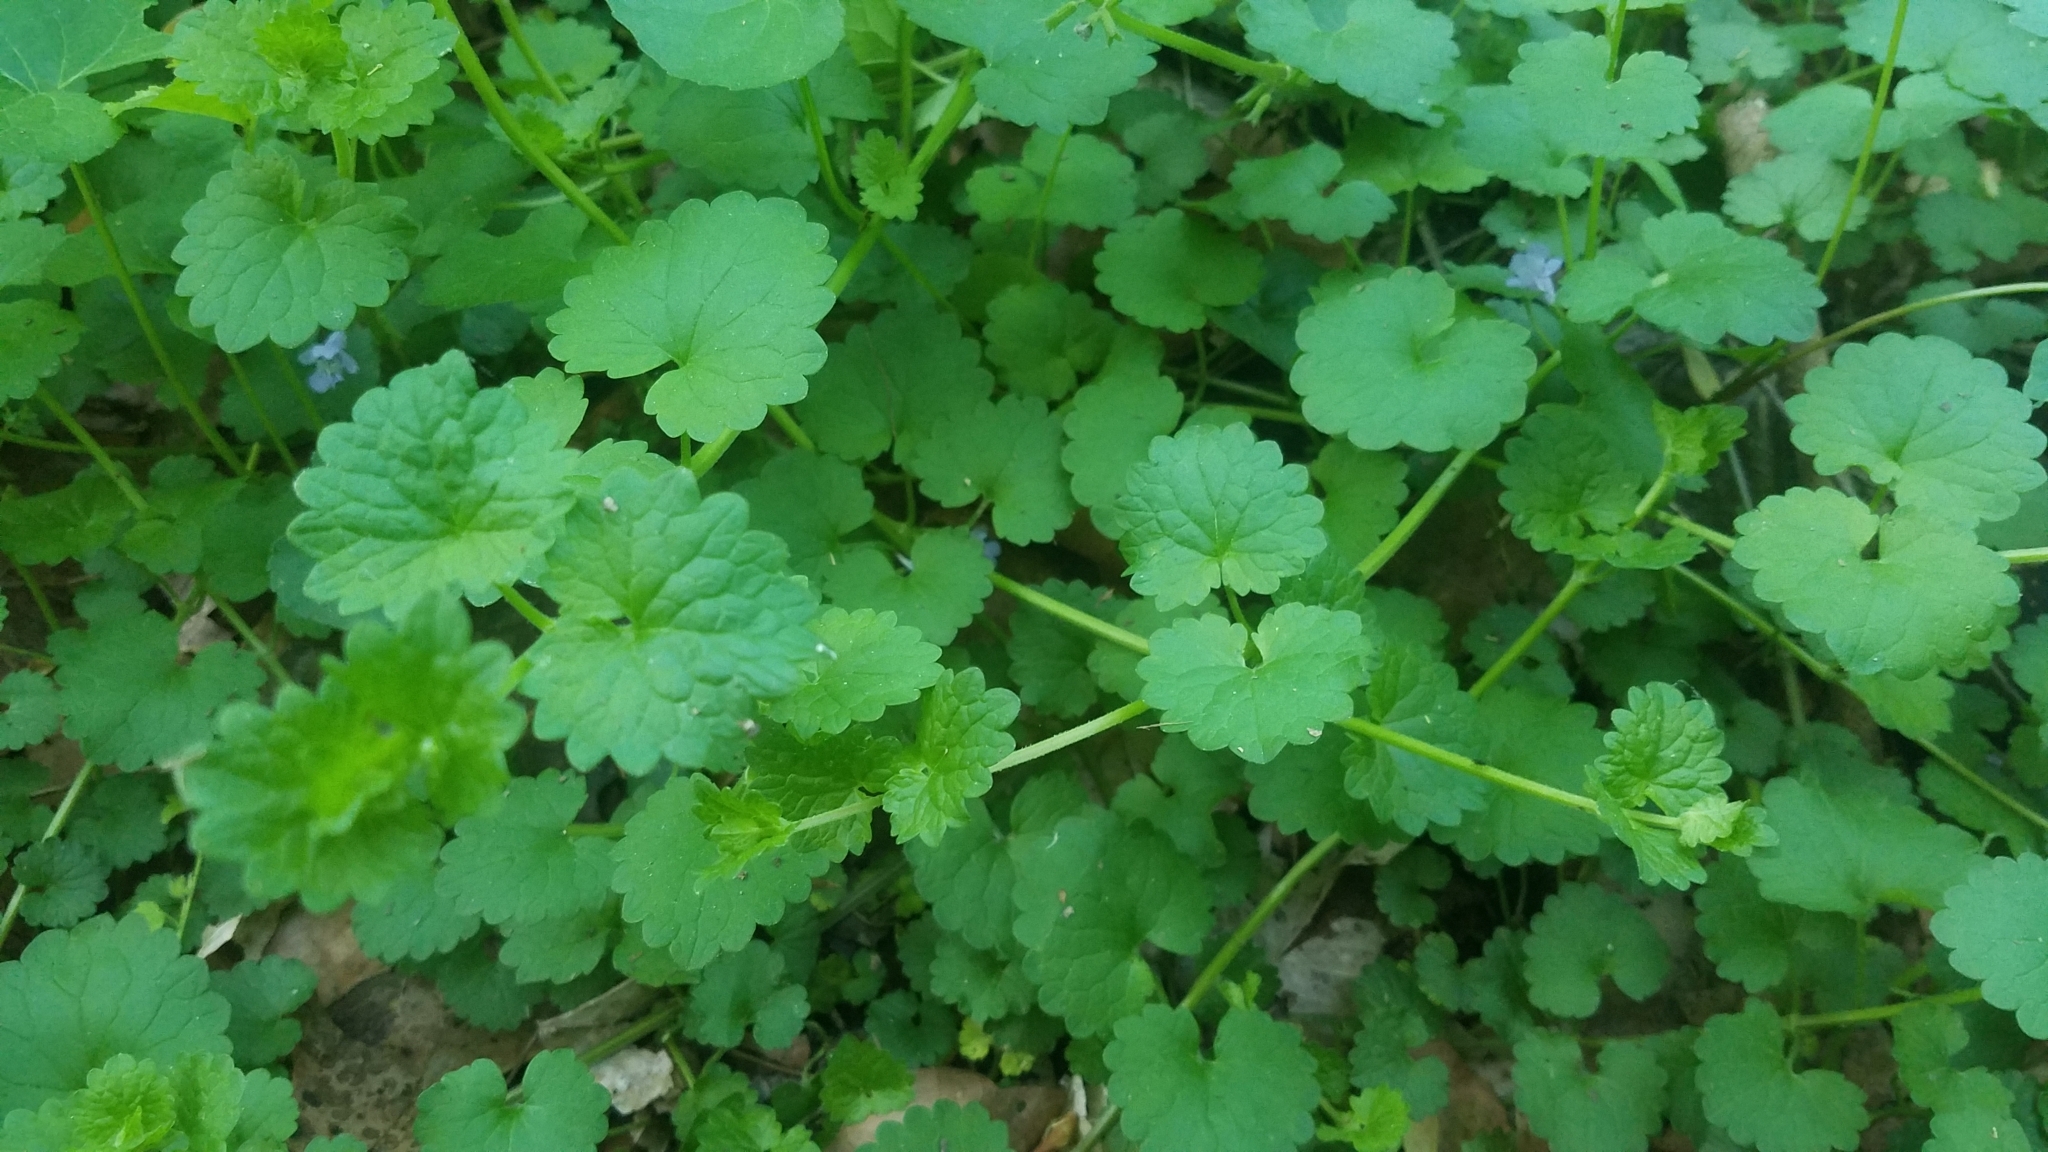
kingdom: Plantae
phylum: Tracheophyta
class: Magnoliopsida
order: Lamiales
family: Lamiaceae
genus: Glechoma
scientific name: Glechoma hederacea
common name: Ground ivy
